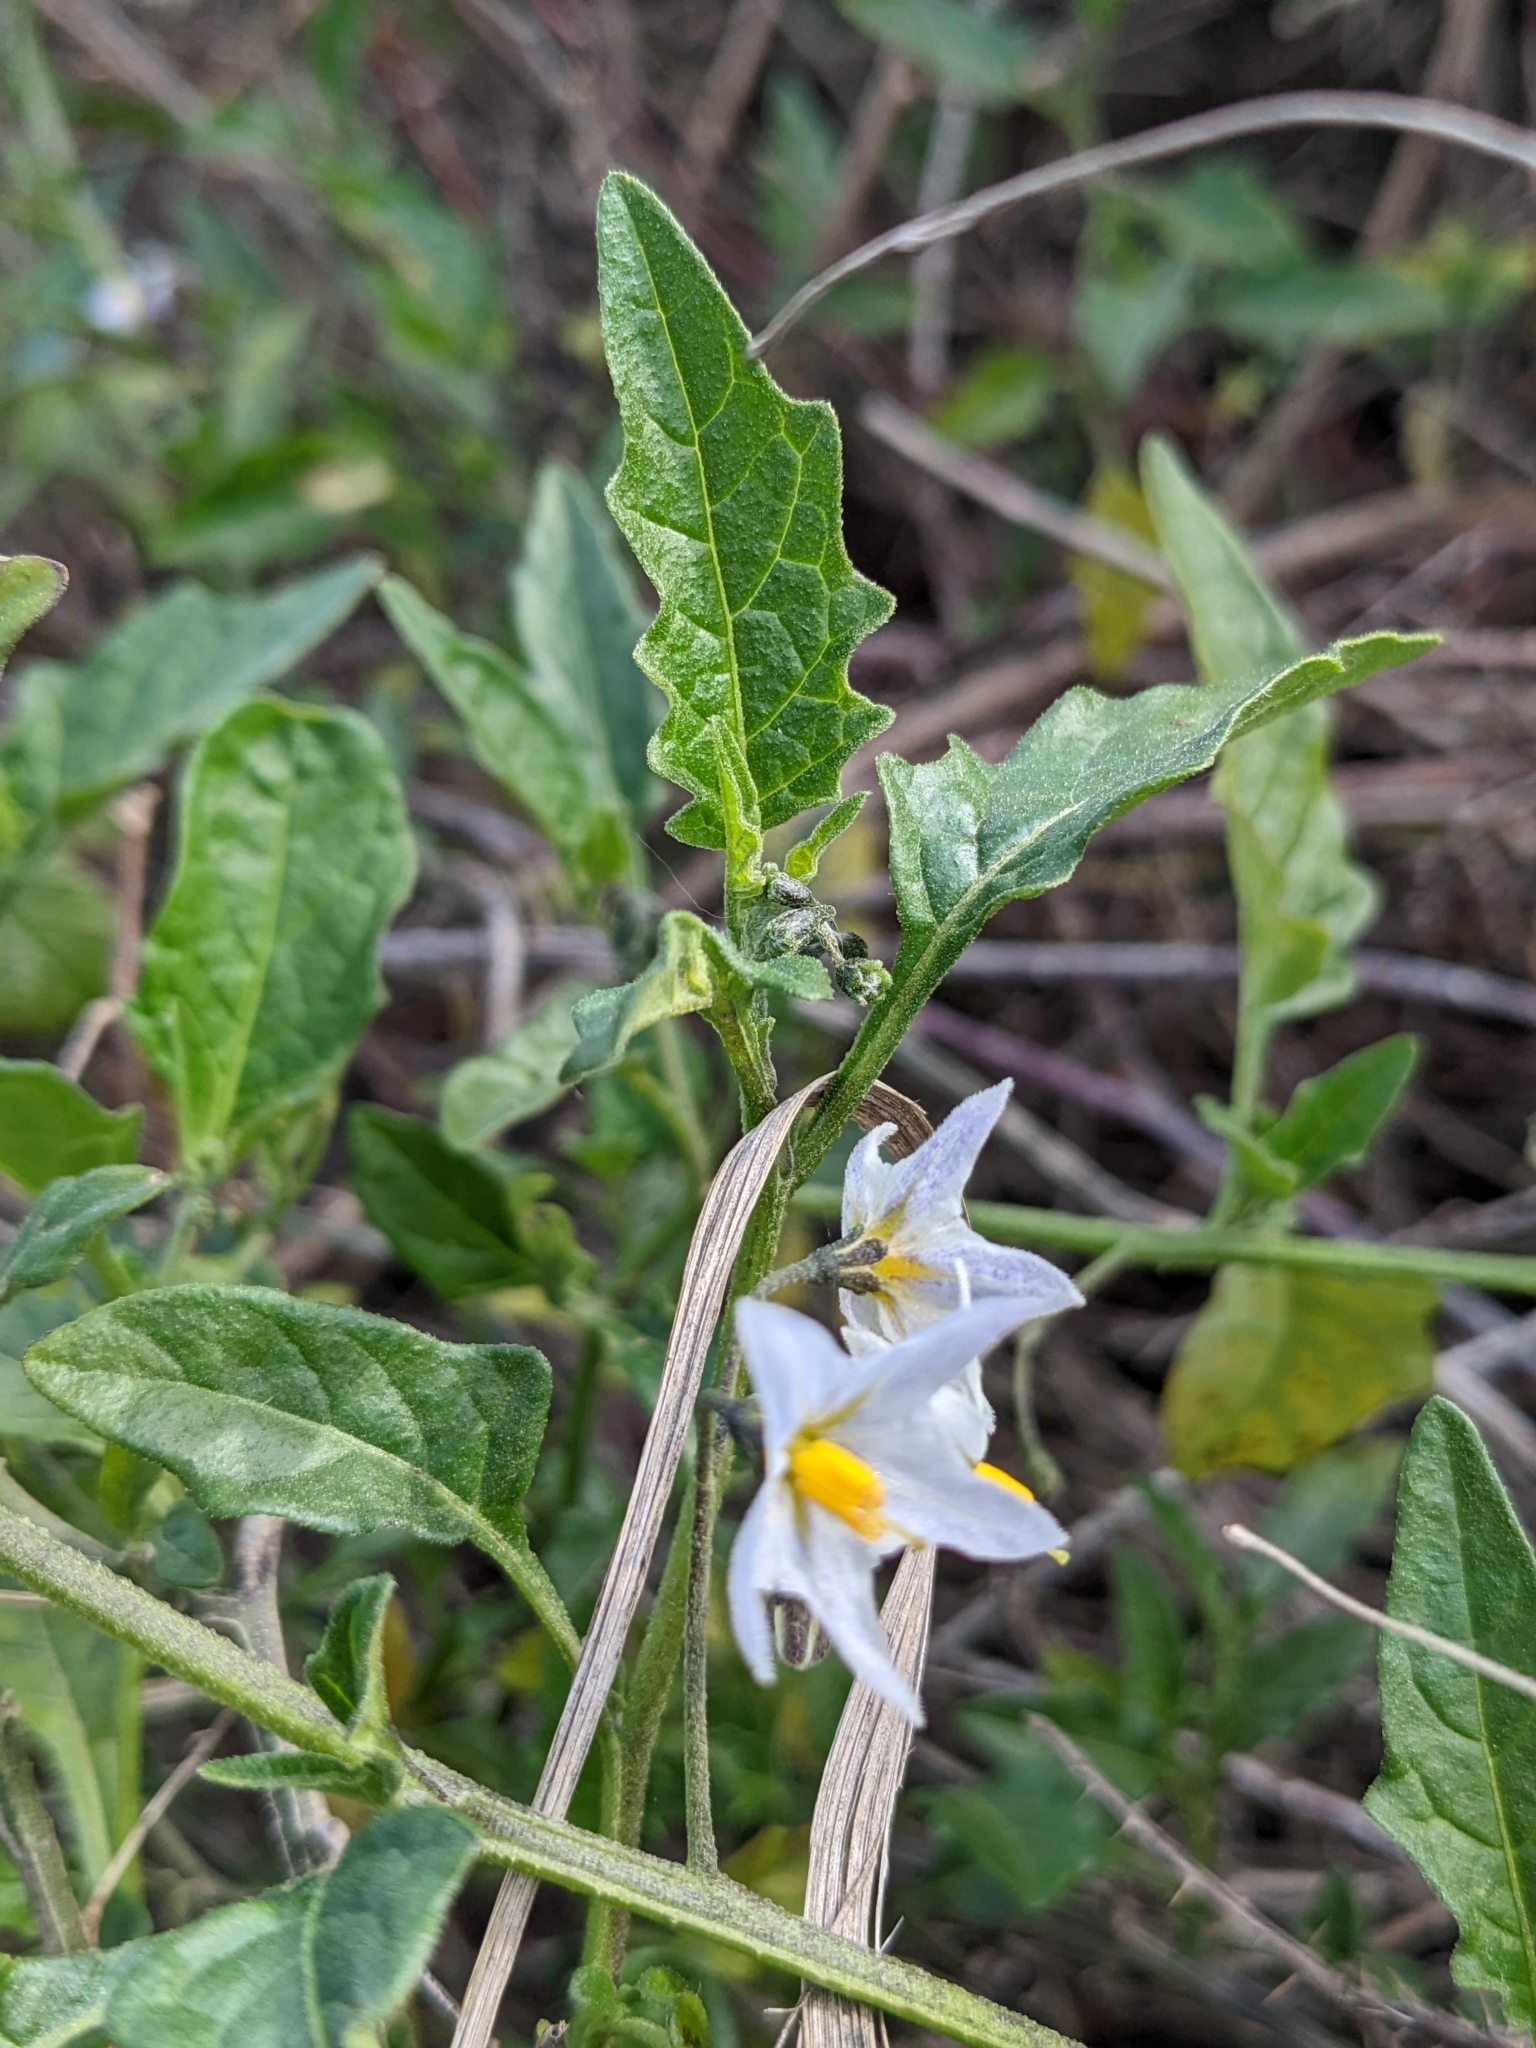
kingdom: Plantae
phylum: Tracheophyta
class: Magnoliopsida
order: Solanales
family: Solanaceae
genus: Solanum
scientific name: Solanum furcatum
